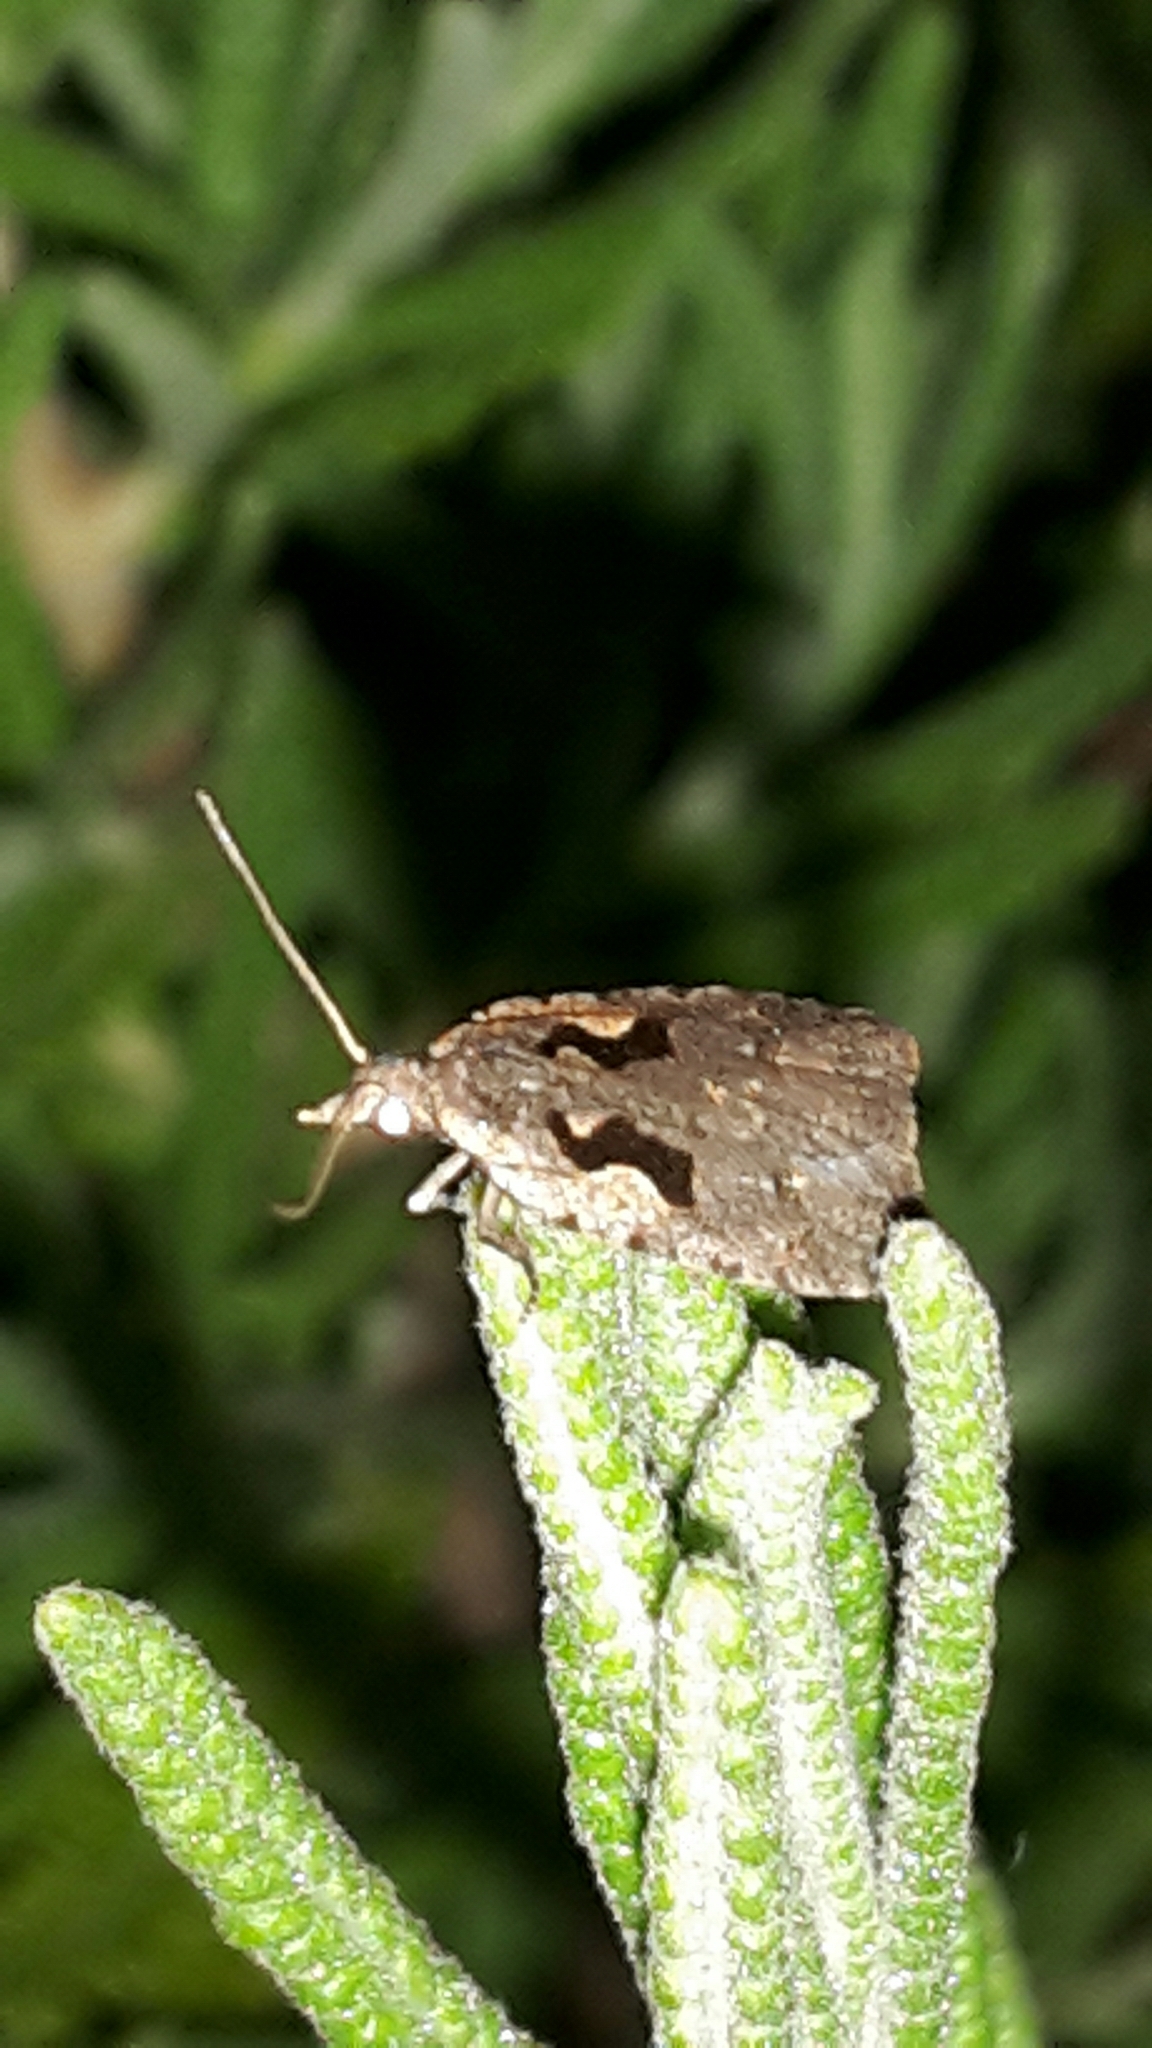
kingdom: Animalia
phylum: Arthropoda
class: Insecta
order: Lepidoptera
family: Tortricidae
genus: Cnephasia
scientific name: Cnephasia jactatana
